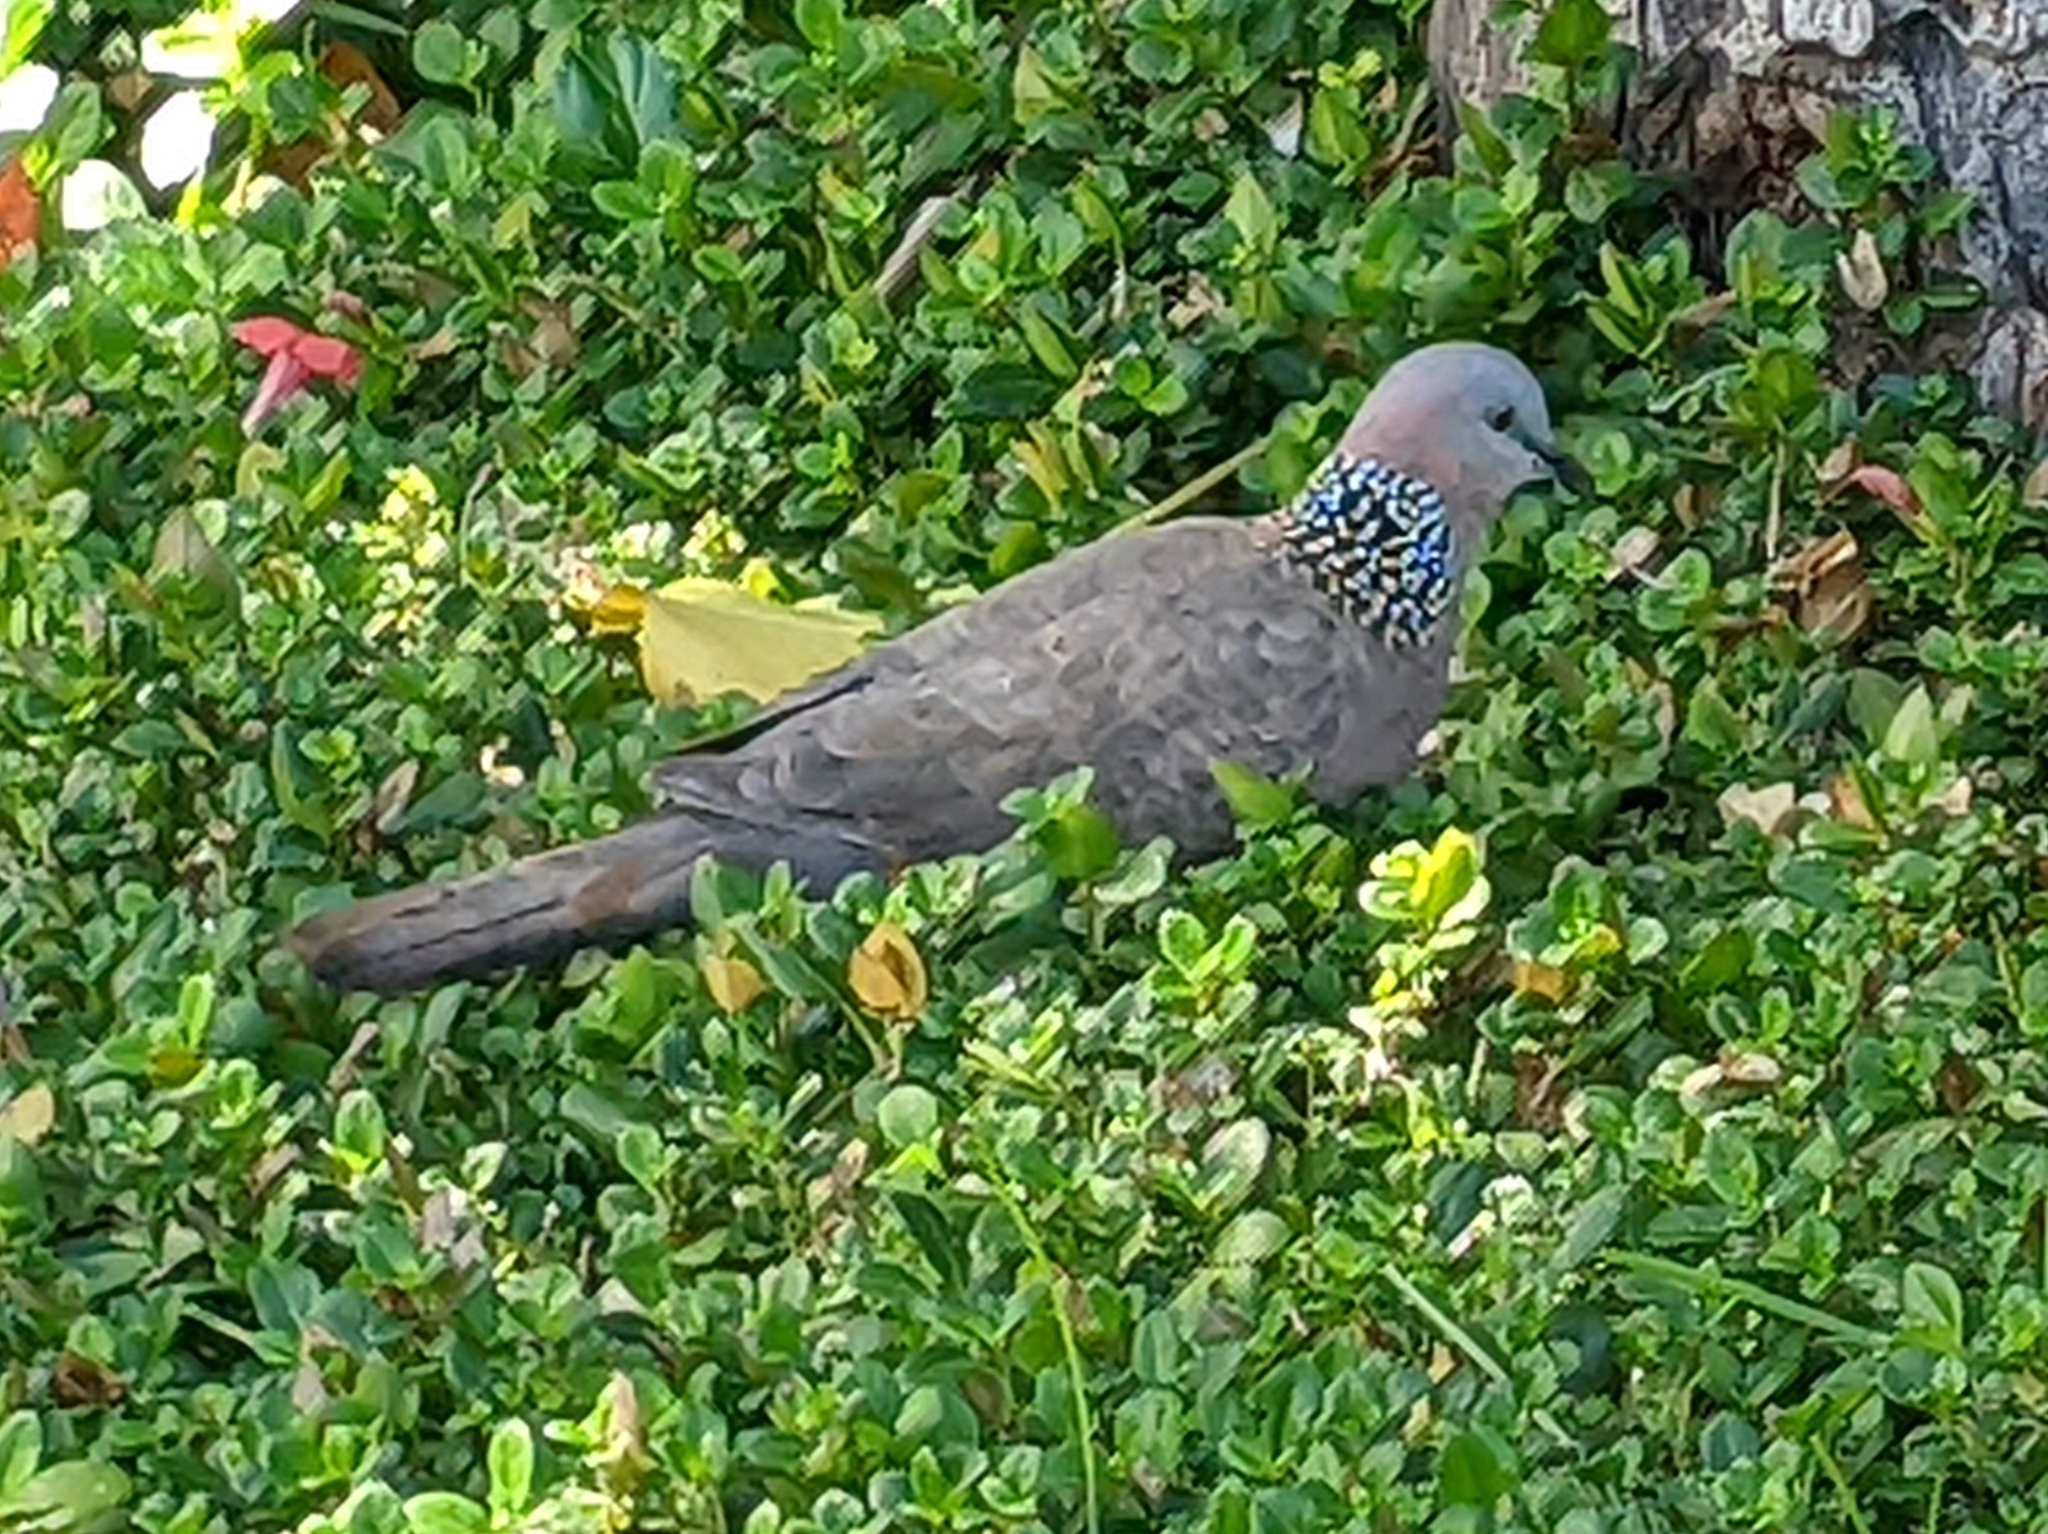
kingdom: Animalia
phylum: Chordata
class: Aves
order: Columbiformes
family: Columbidae
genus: Spilopelia
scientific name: Spilopelia chinensis
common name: Spotted dove
